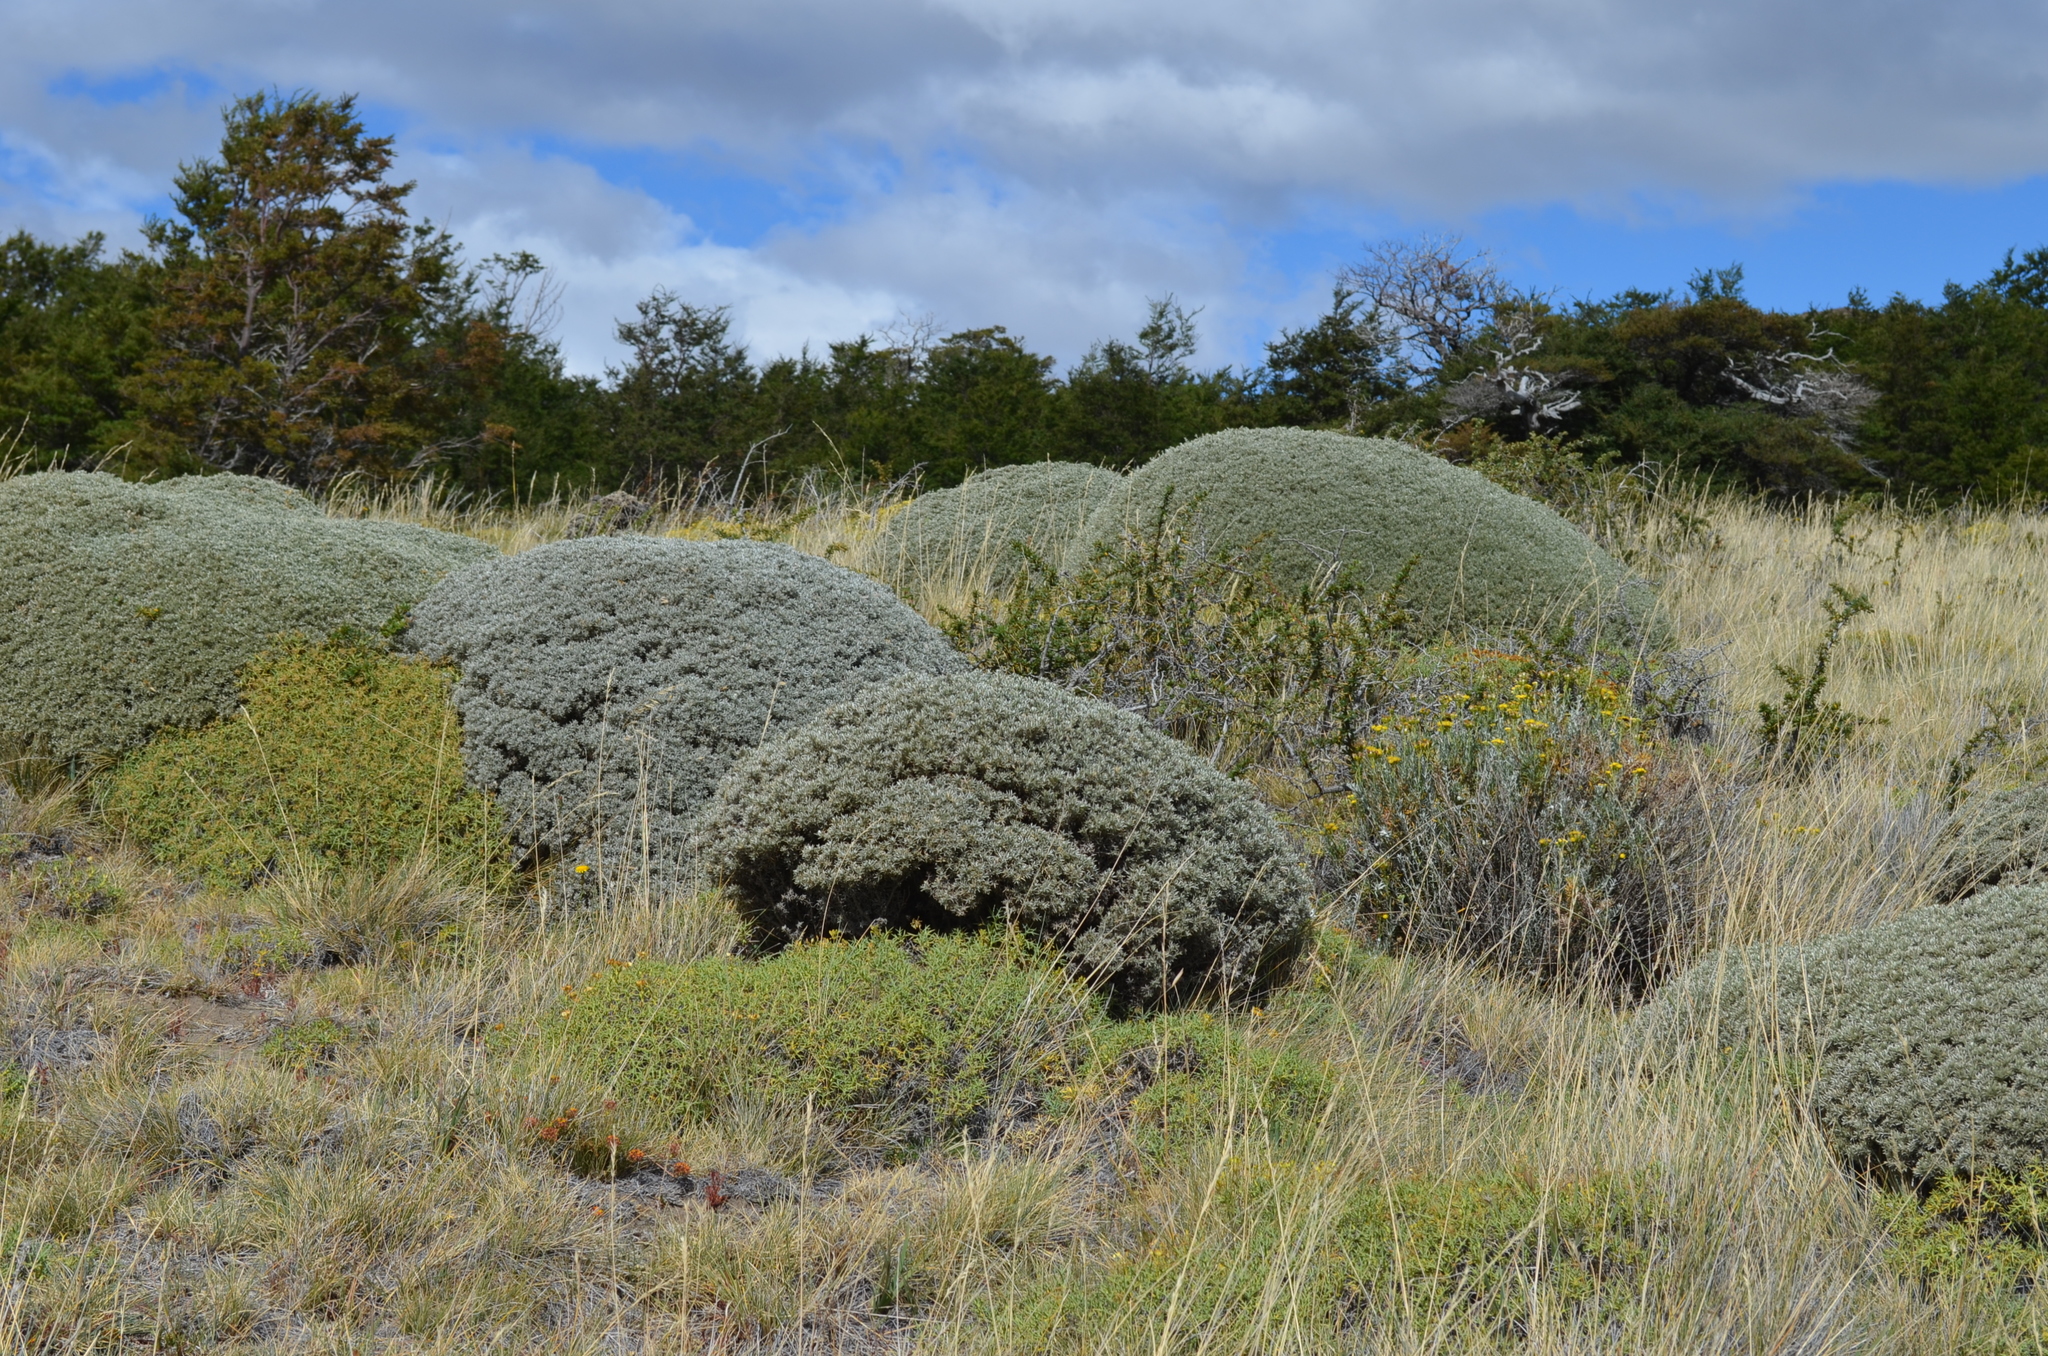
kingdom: Plantae
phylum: Tracheophyta
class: Magnoliopsida
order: Fabales
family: Fabaceae
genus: Anarthrophyllum
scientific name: Anarthrophyllum desideratum
